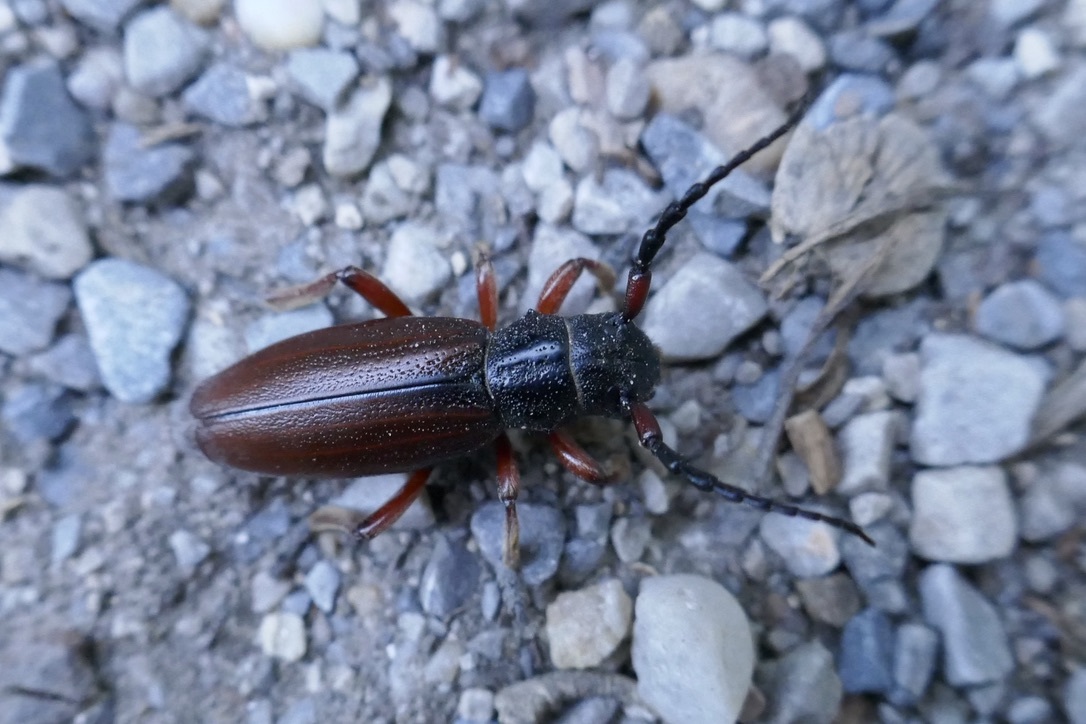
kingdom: Animalia
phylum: Arthropoda
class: Insecta
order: Coleoptera
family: Cerambycidae
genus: Dorcadion
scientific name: Dorcadion fulvum
